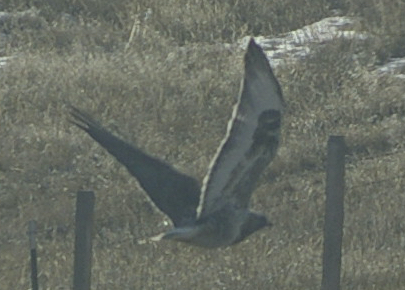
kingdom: Animalia
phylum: Chordata
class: Aves
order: Accipitriformes
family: Accipitridae
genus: Buteo
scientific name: Buteo lagopus
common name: Rough-legged buzzard
